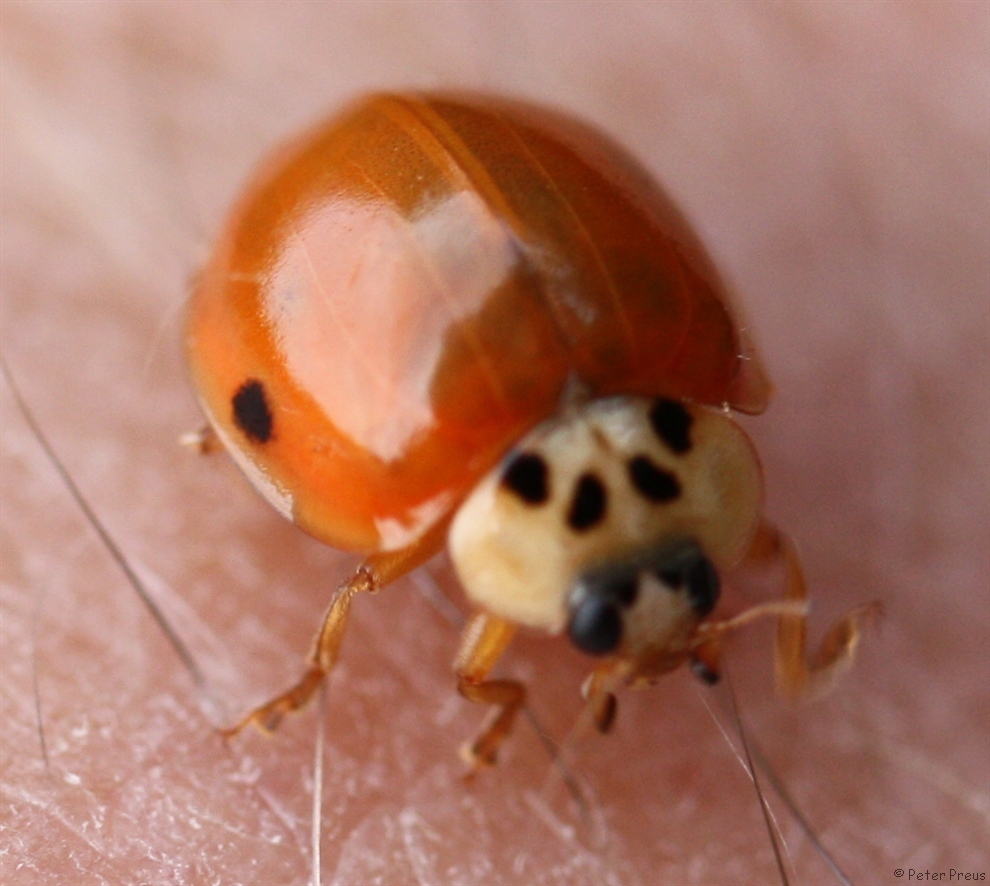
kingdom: Animalia
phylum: Arthropoda
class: Insecta
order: Coleoptera
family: Coccinellidae
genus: Harmonia
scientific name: Harmonia axyridis
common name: Harlequin ladybird
